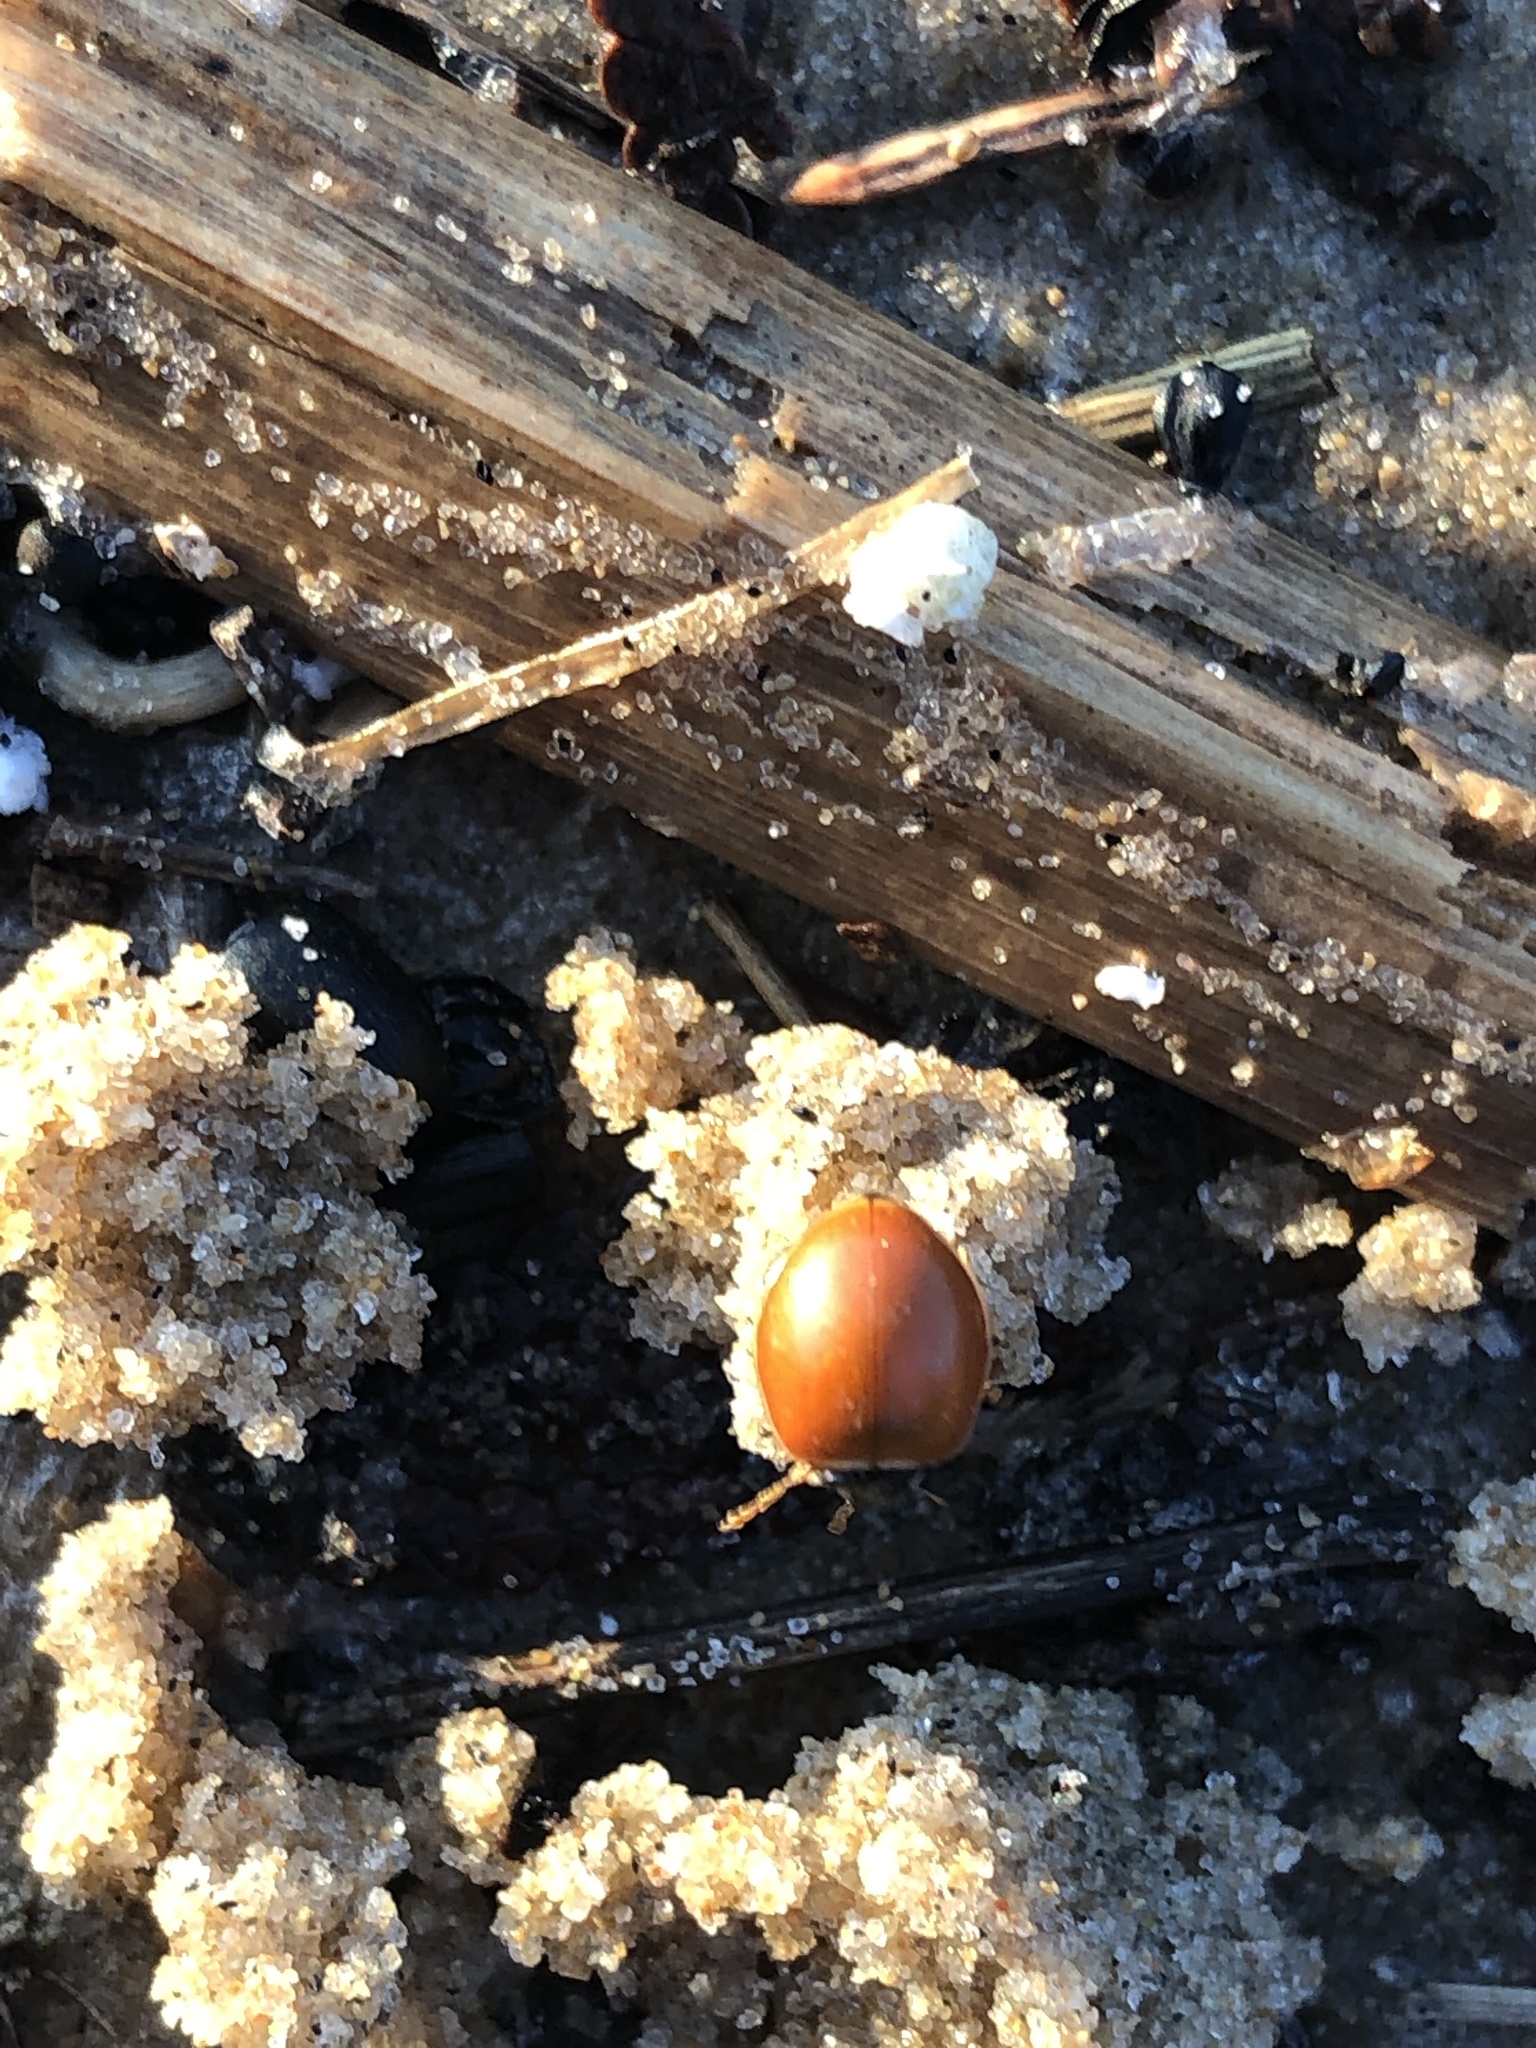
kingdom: Animalia
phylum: Arthropoda
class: Insecta
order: Coleoptera
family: Coccinellidae
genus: Cycloneda
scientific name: Cycloneda munda
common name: Polished lady beetle
